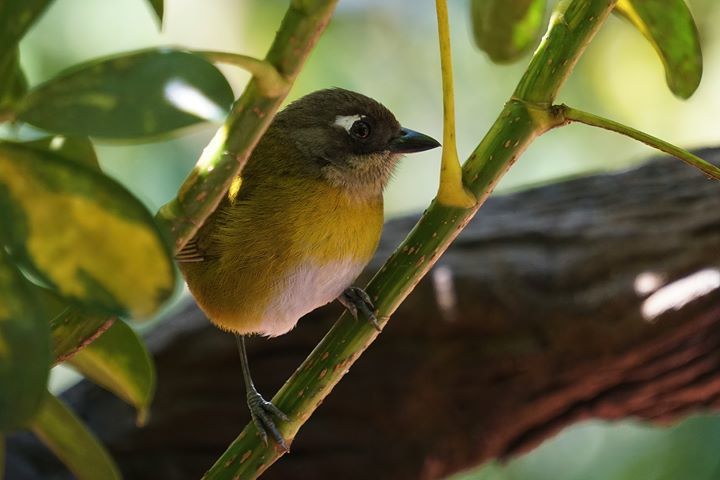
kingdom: Animalia
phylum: Chordata
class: Aves
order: Passeriformes
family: Passerellidae
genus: Chlorospingus
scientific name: Chlorospingus flavopectus
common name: Common chlorospingus
